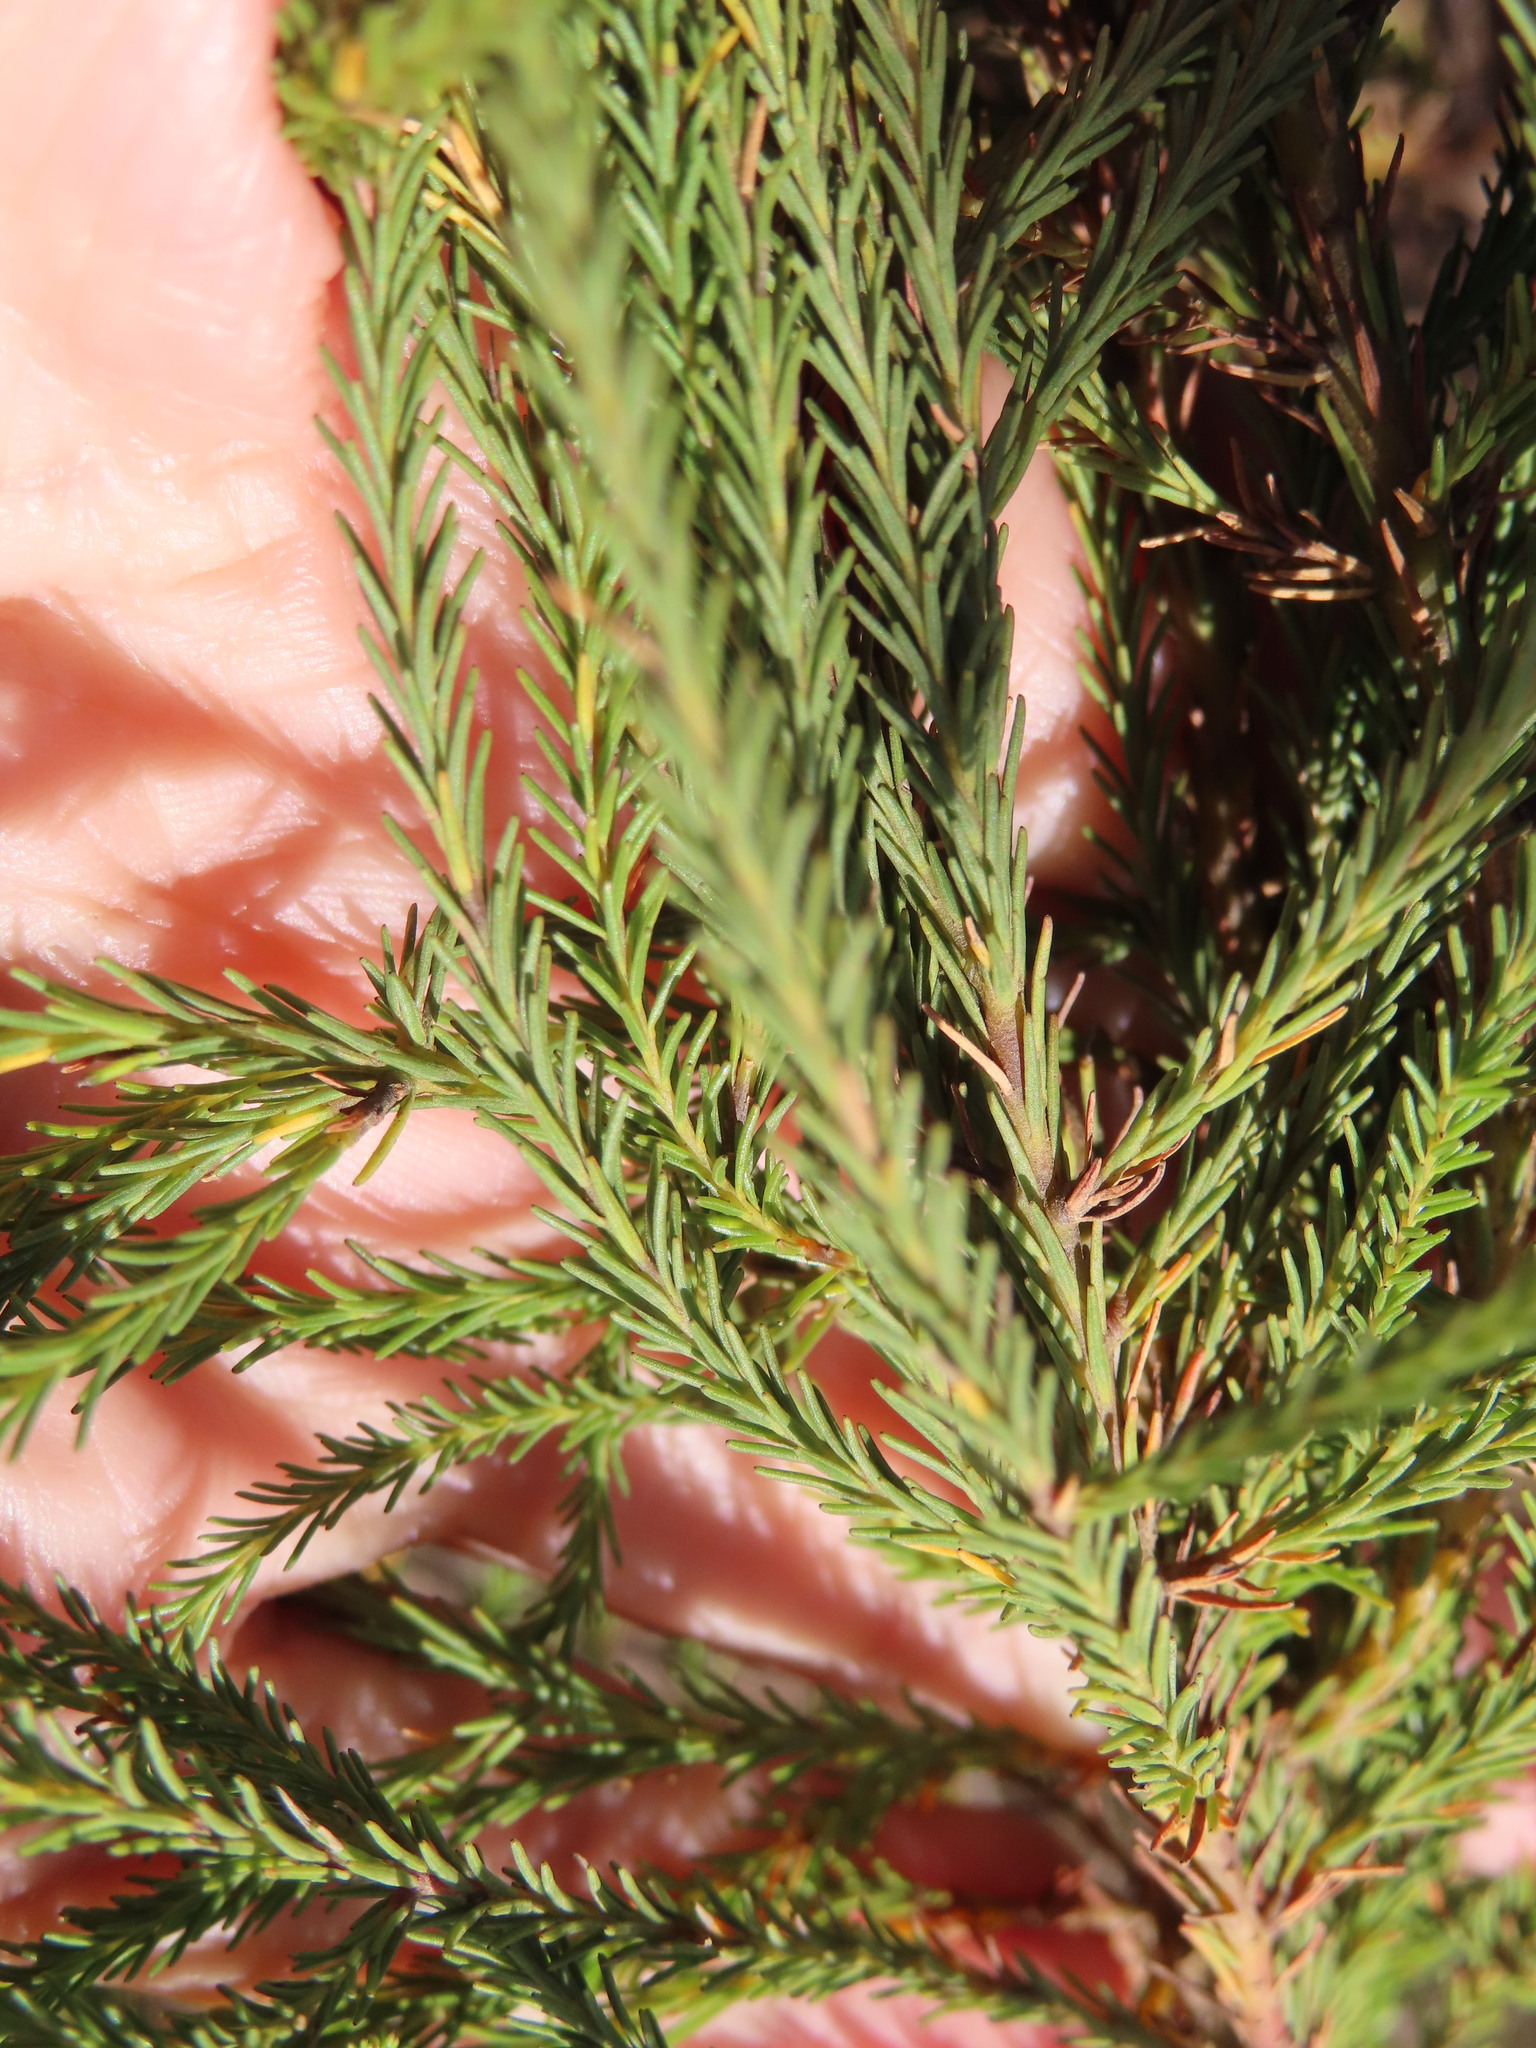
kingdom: Plantae
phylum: Tracheophyta
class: Magnoliopsida
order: Bruniales
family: Bruniaceae
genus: Berzelia
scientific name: Berzelia lanuginosa
